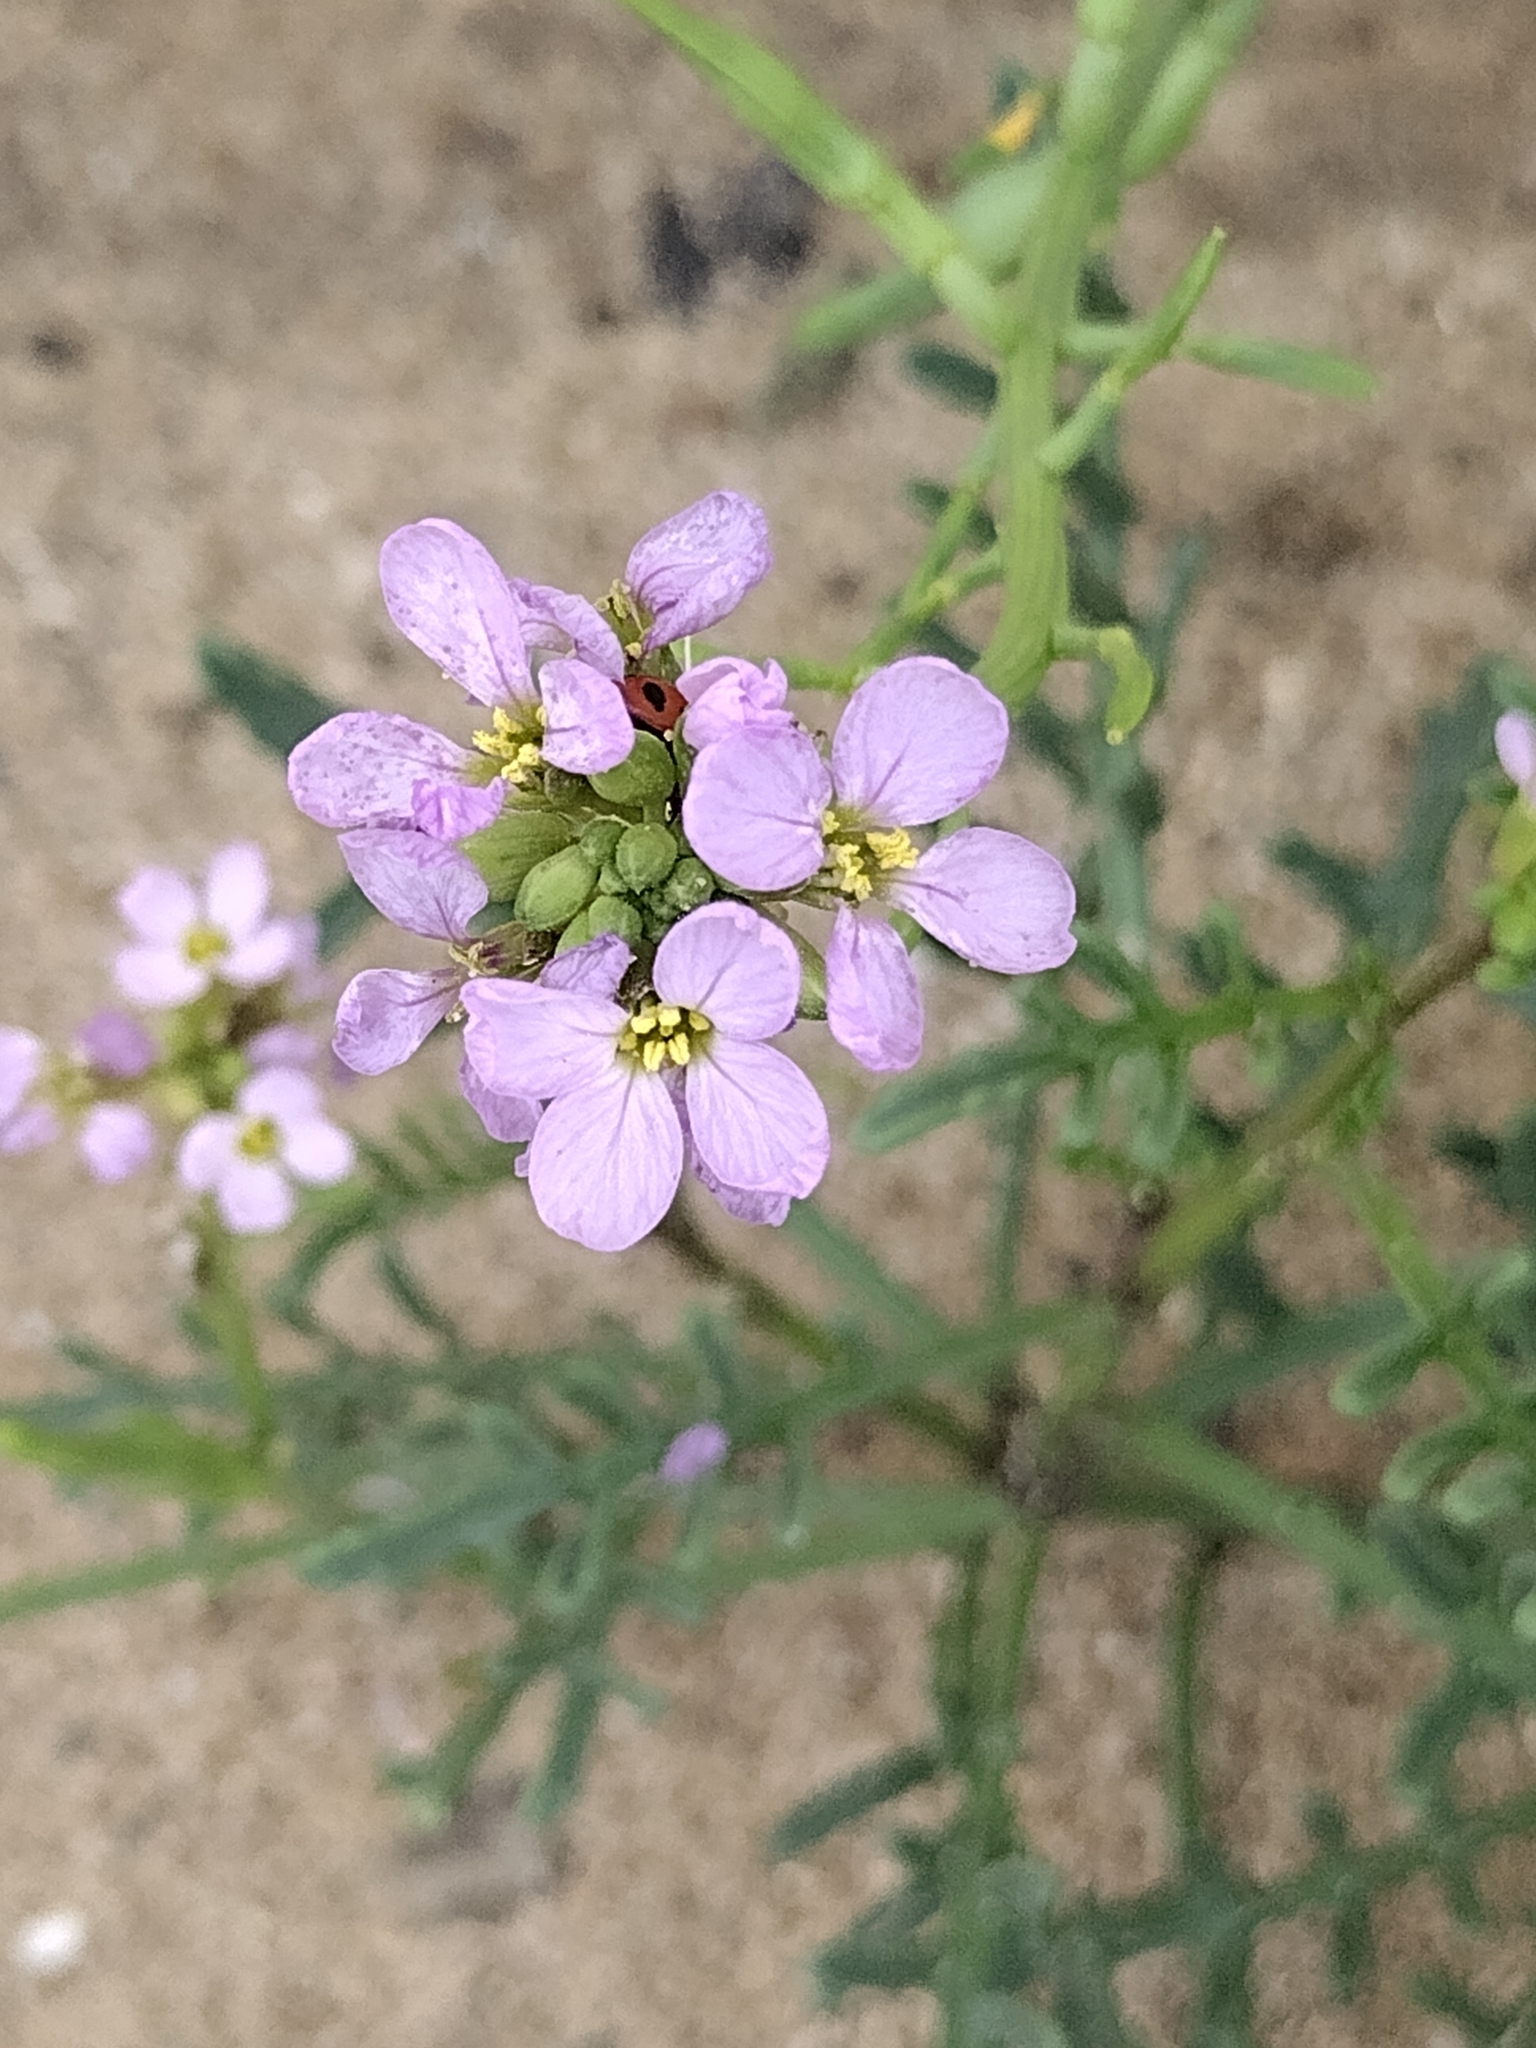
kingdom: Plantae
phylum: Tracheophyta
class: Magnoliopsida
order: Brassicales
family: Brassicaceae
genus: Cakile
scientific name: Cakile maritima
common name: Sea rocket
